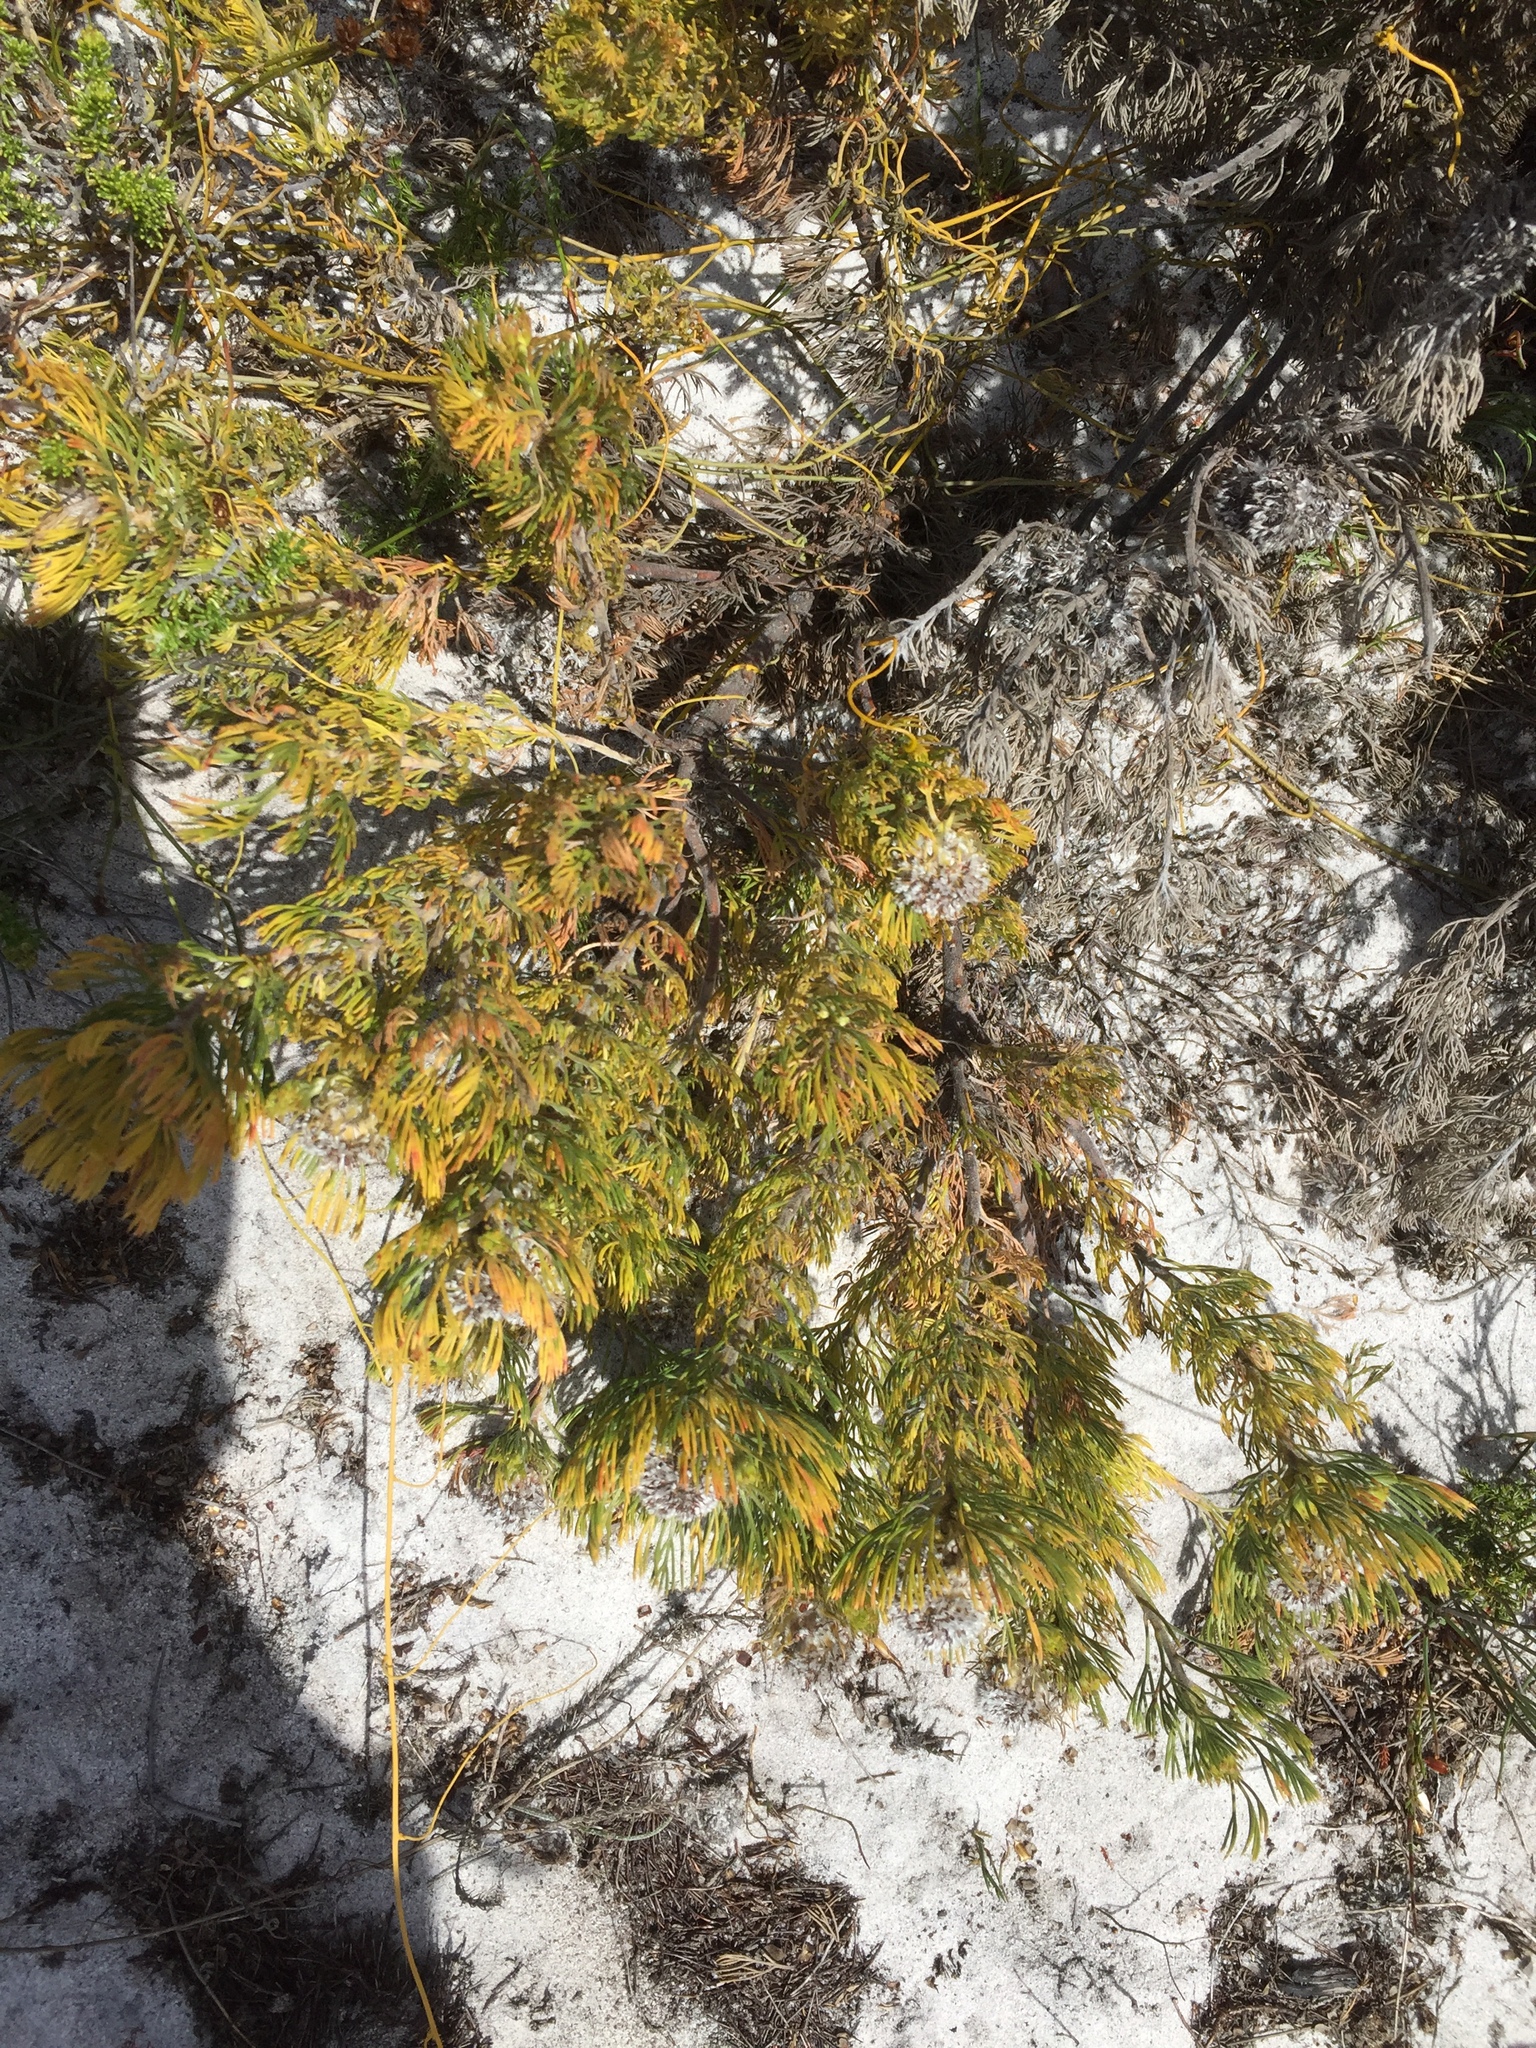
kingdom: Plantae
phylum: Tracheophyta
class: Magnoliopsida
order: Proteales
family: Proteaceae
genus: Serruria
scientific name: Serruria villosa
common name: Golden spiderhead
